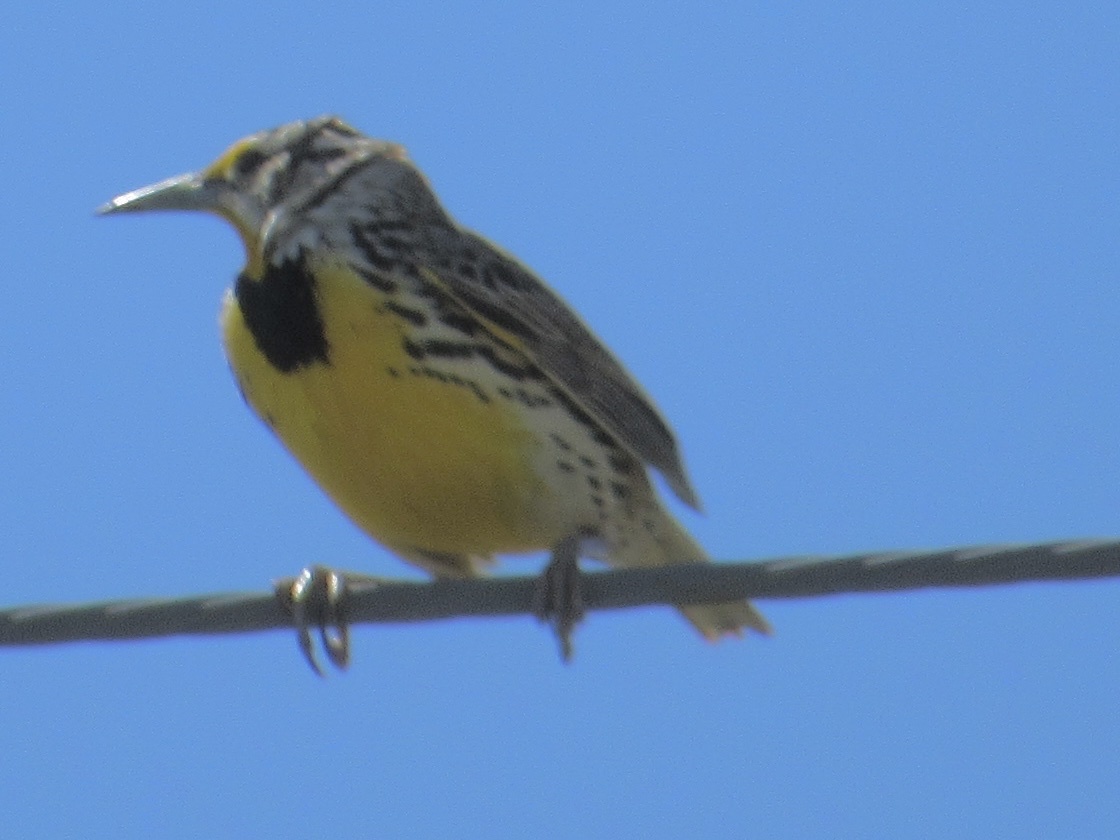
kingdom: Animalia
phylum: Chordata
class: Aves
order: Passeriformes
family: Icteridae
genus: Sturnella
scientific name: Sturnella magna
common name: Eastern meadowlark
